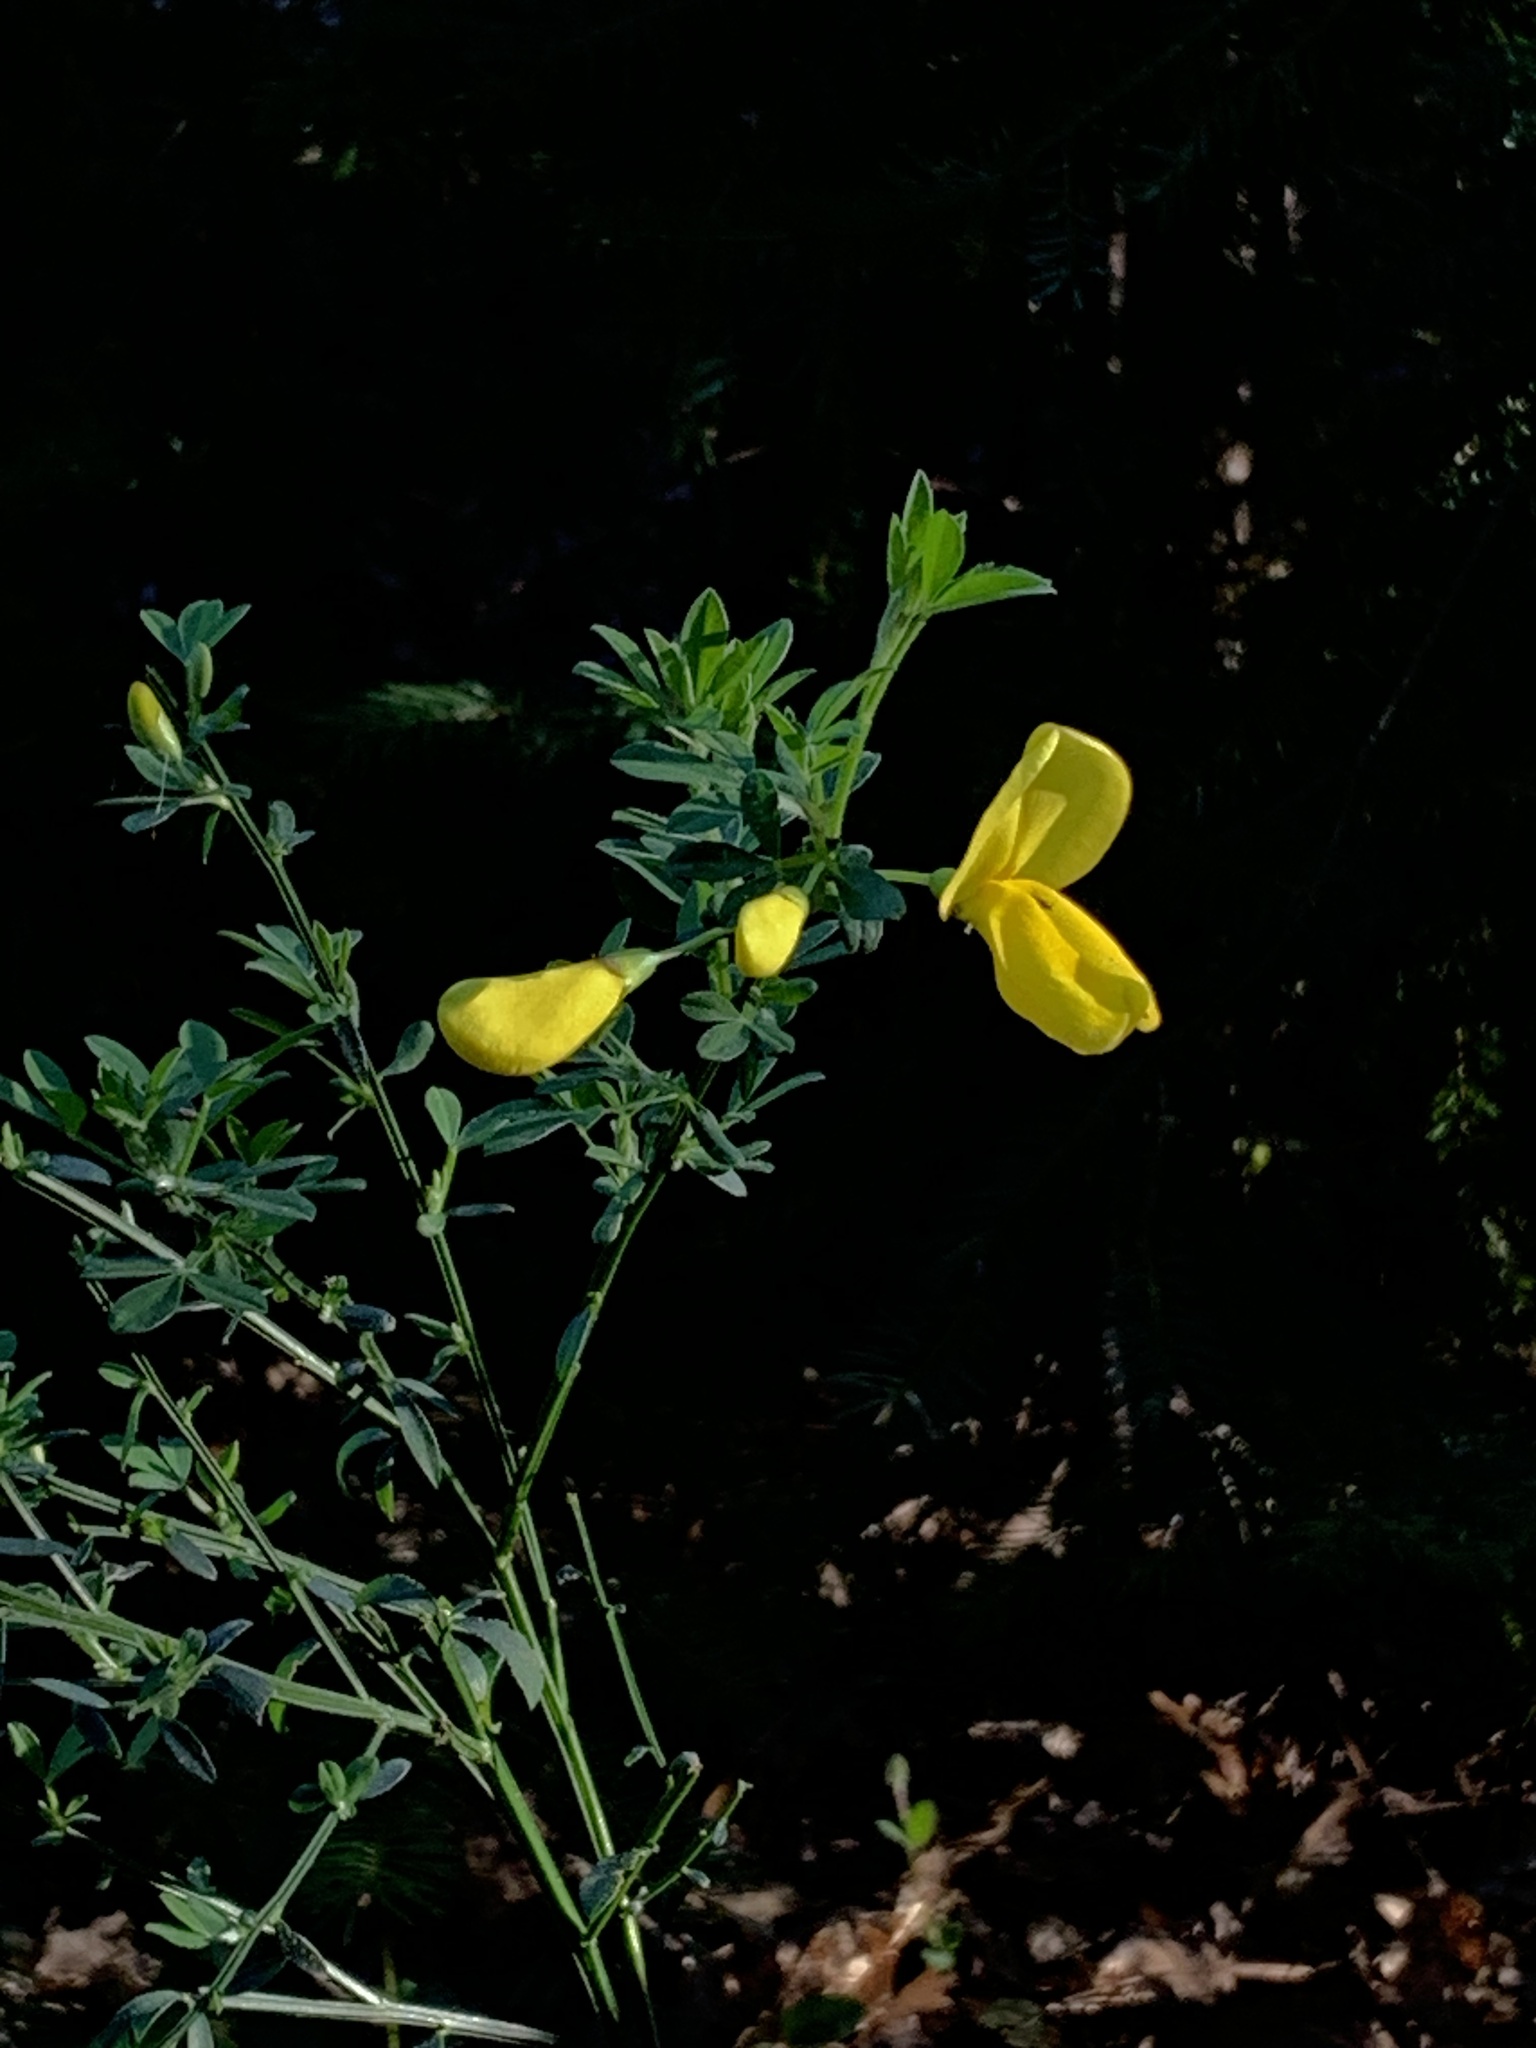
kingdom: Plantae
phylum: Tracheophyta
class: Magnoliopsida
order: Fabales
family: Fabaceae
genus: Cytisus
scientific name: Cytisus scoparius
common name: Scotch broom
